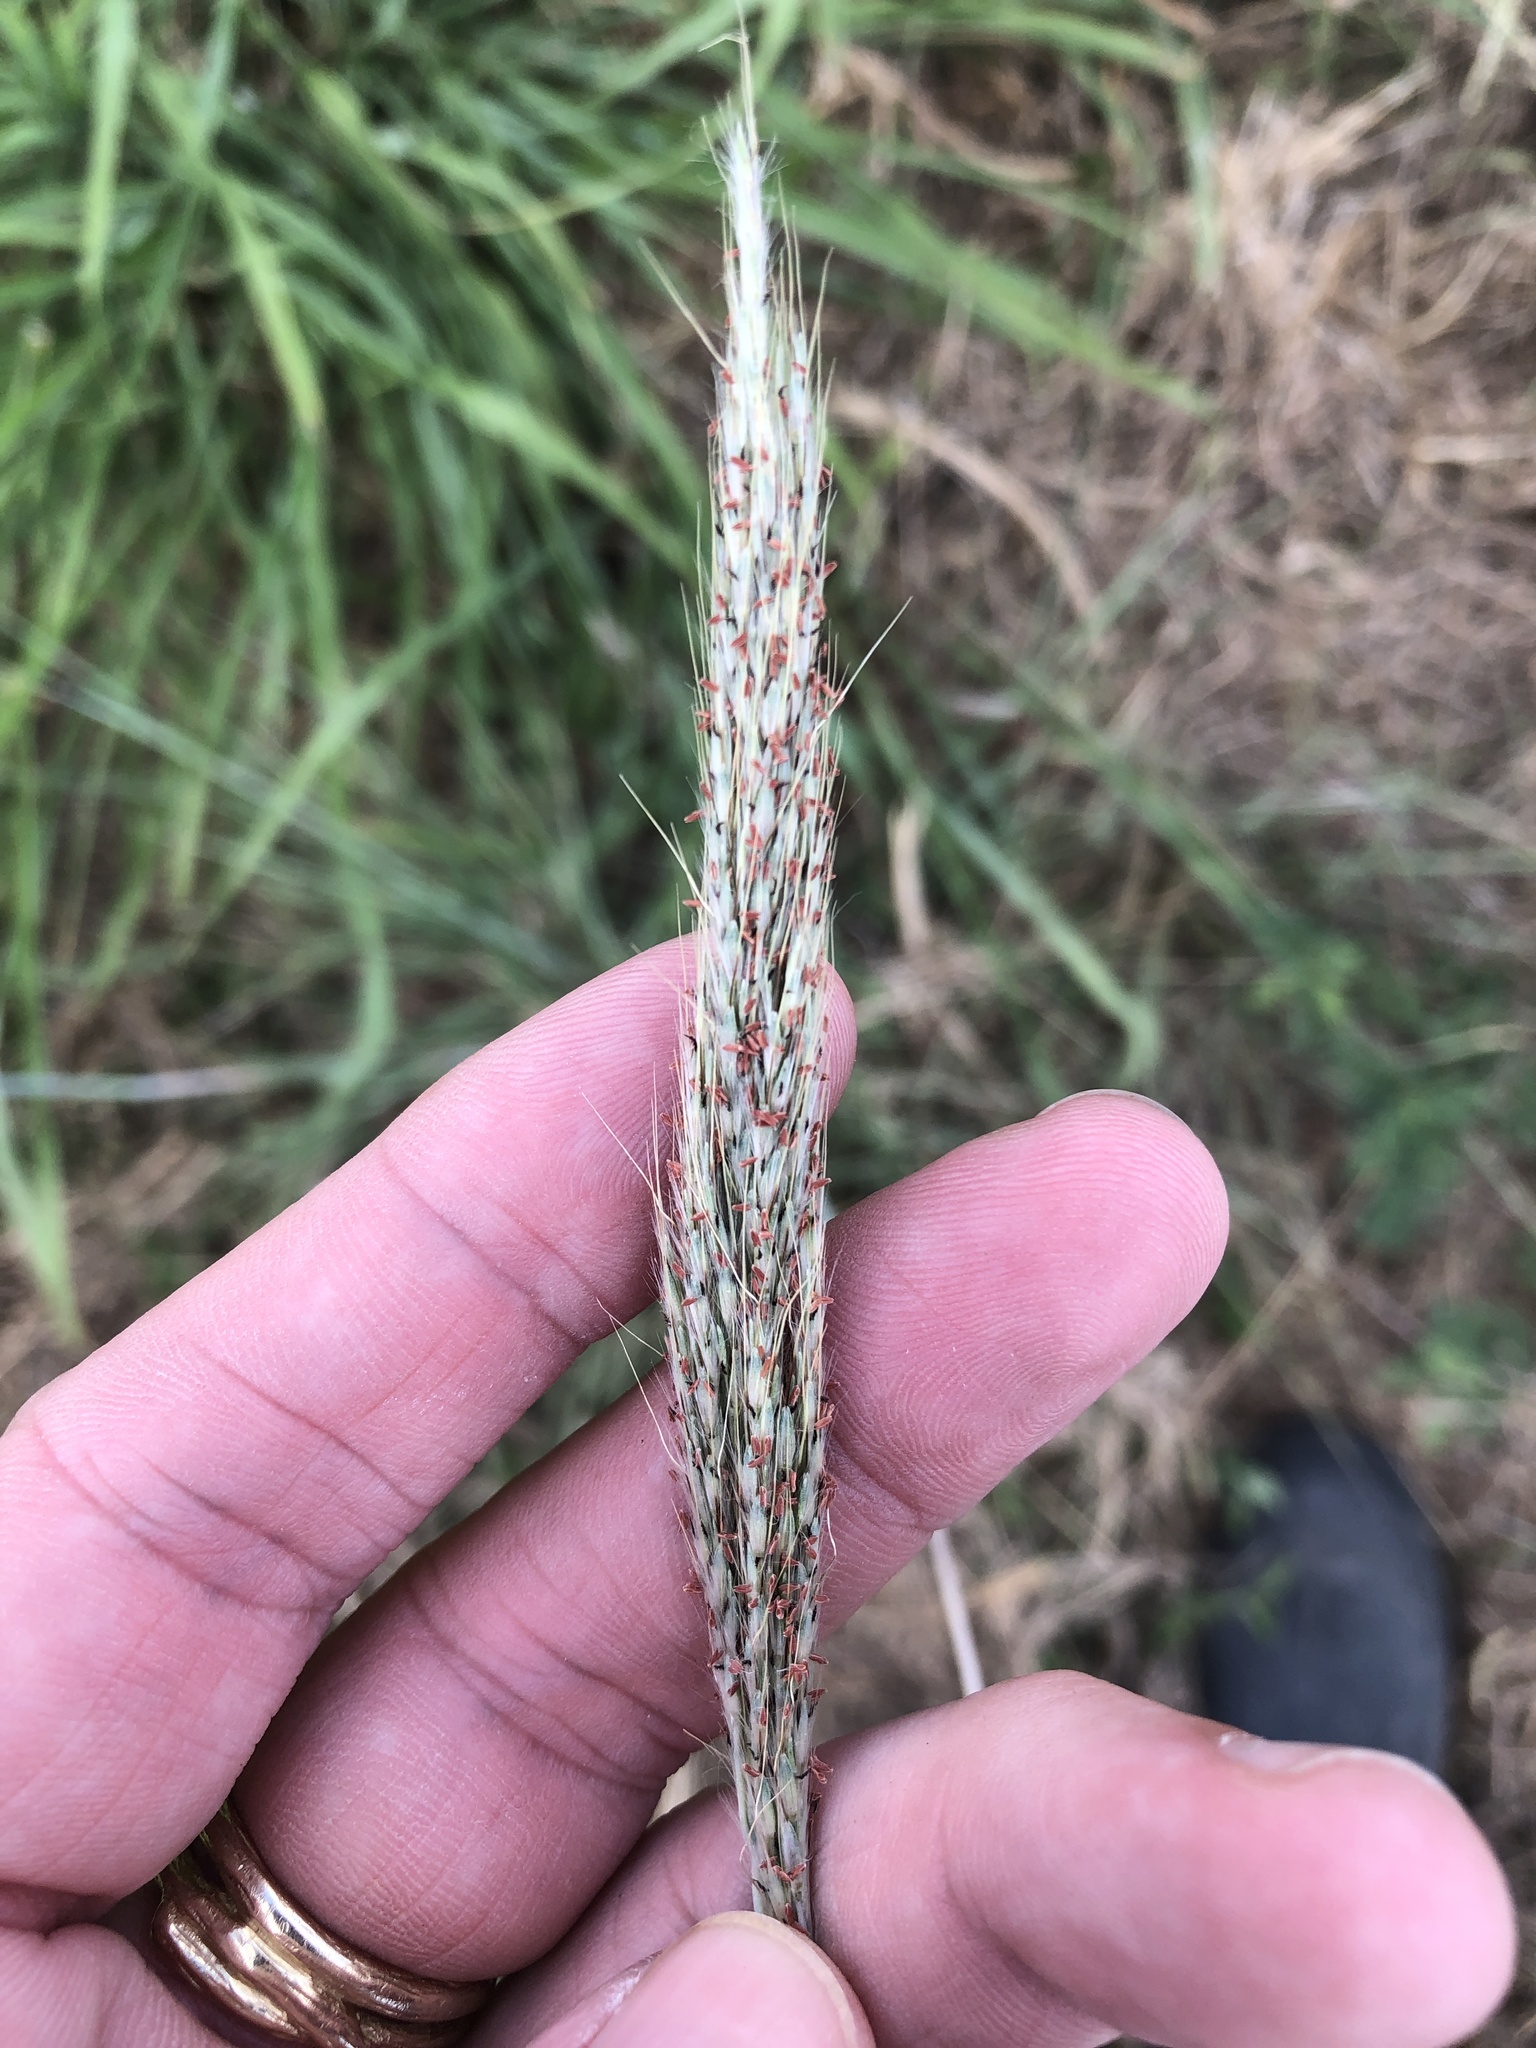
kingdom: Plantae
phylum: Tracheophyta
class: Liliopsida
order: Poales
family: Poaceae
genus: Bothriochloa
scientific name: Bothriochloa torreyana
